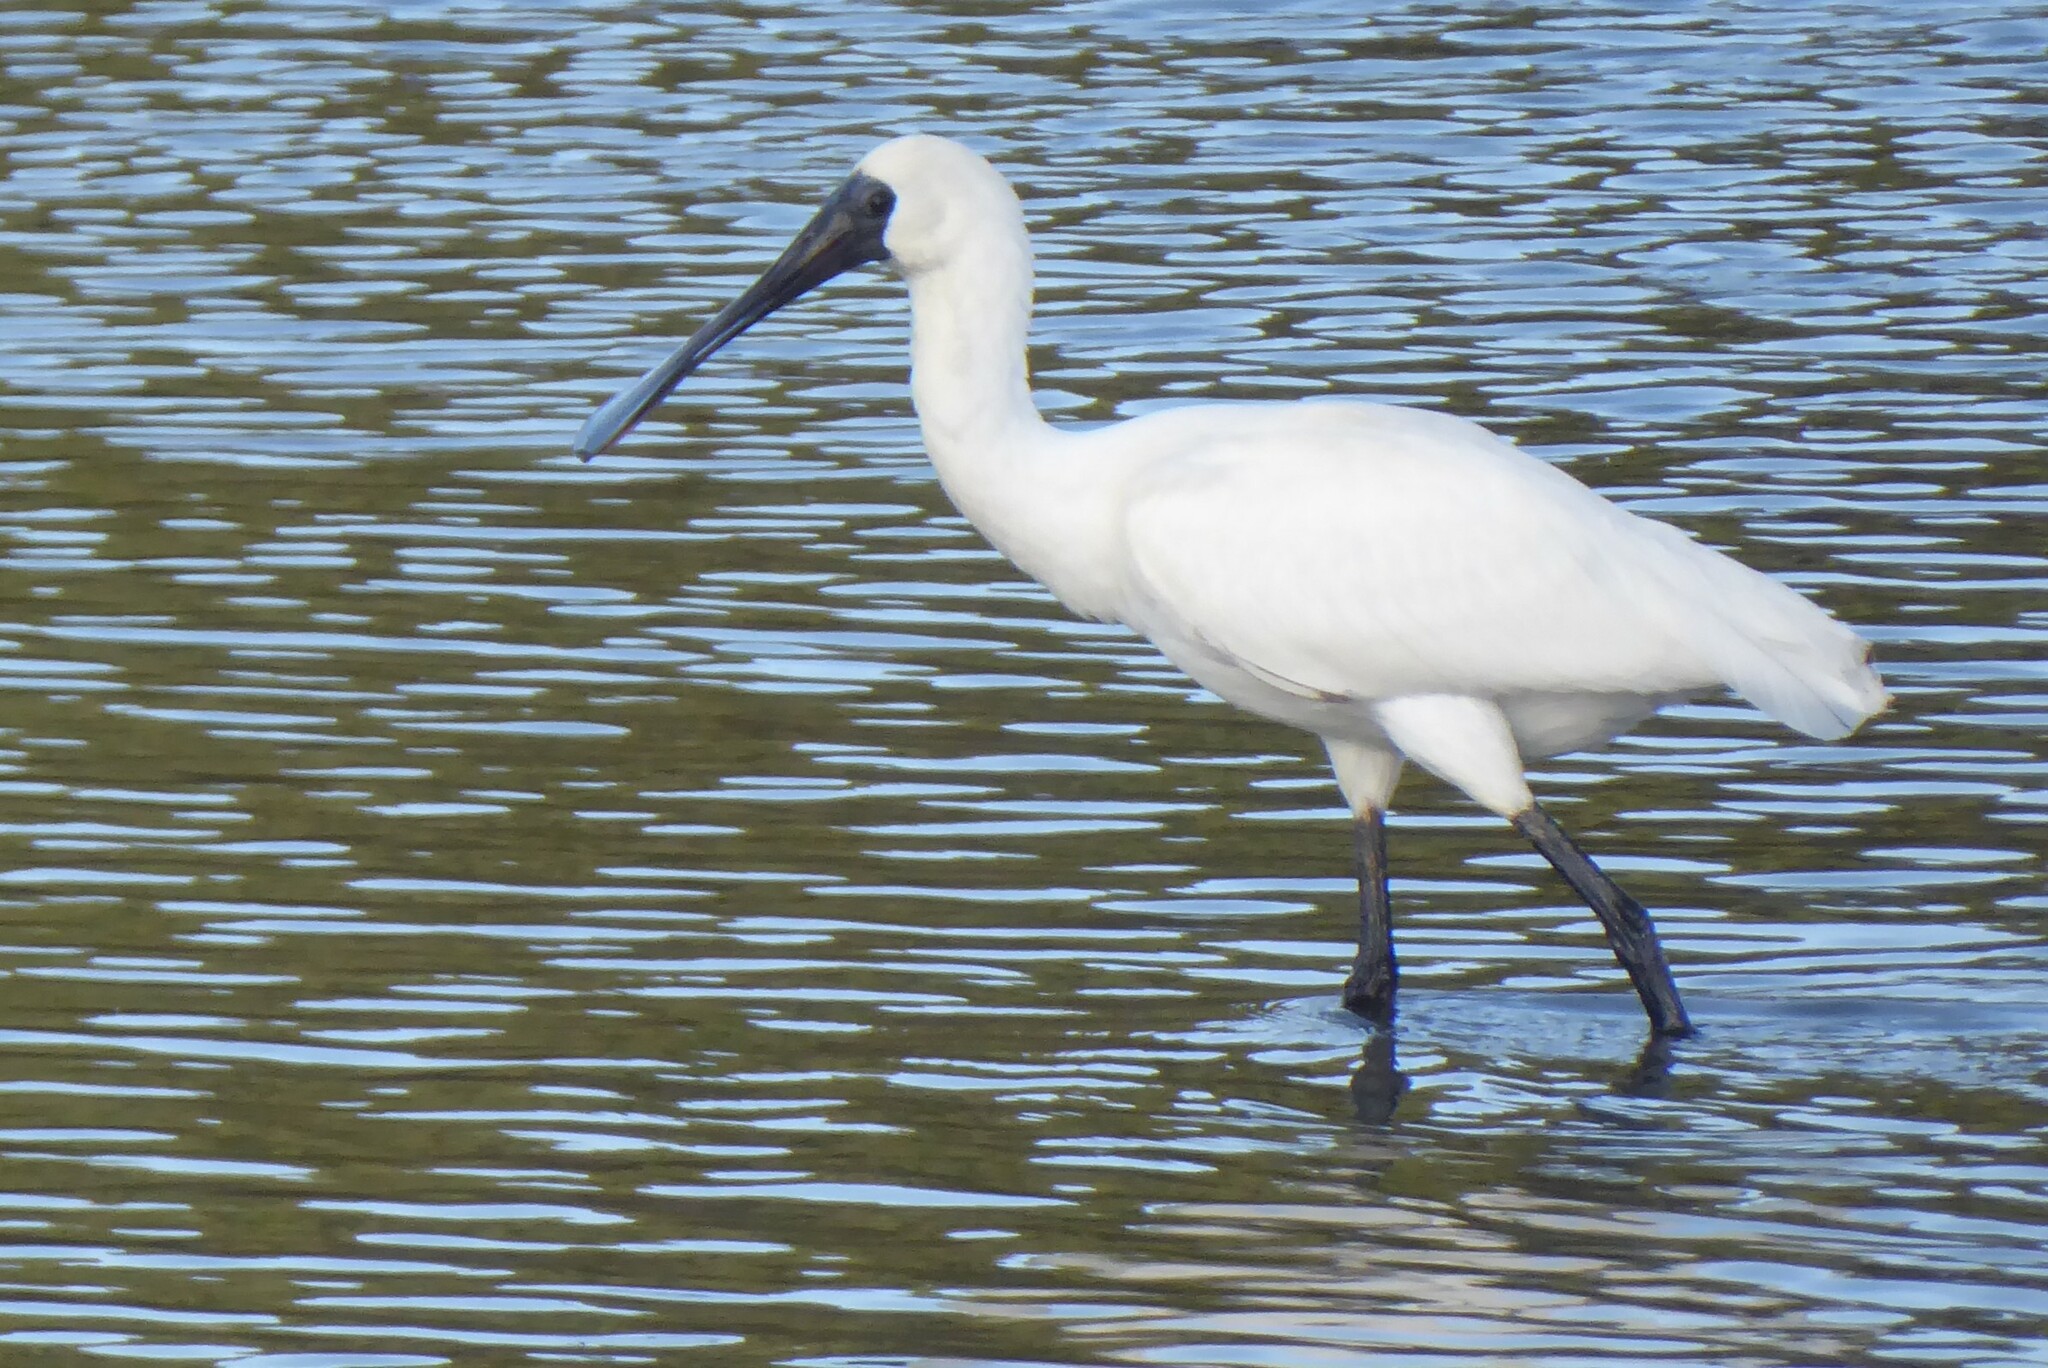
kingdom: Animalia
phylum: Chordata
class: Aves
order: Pelecaniformes
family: Threskiornithidae
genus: Platalea
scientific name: Platalea regia
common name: Royal spoonbill
